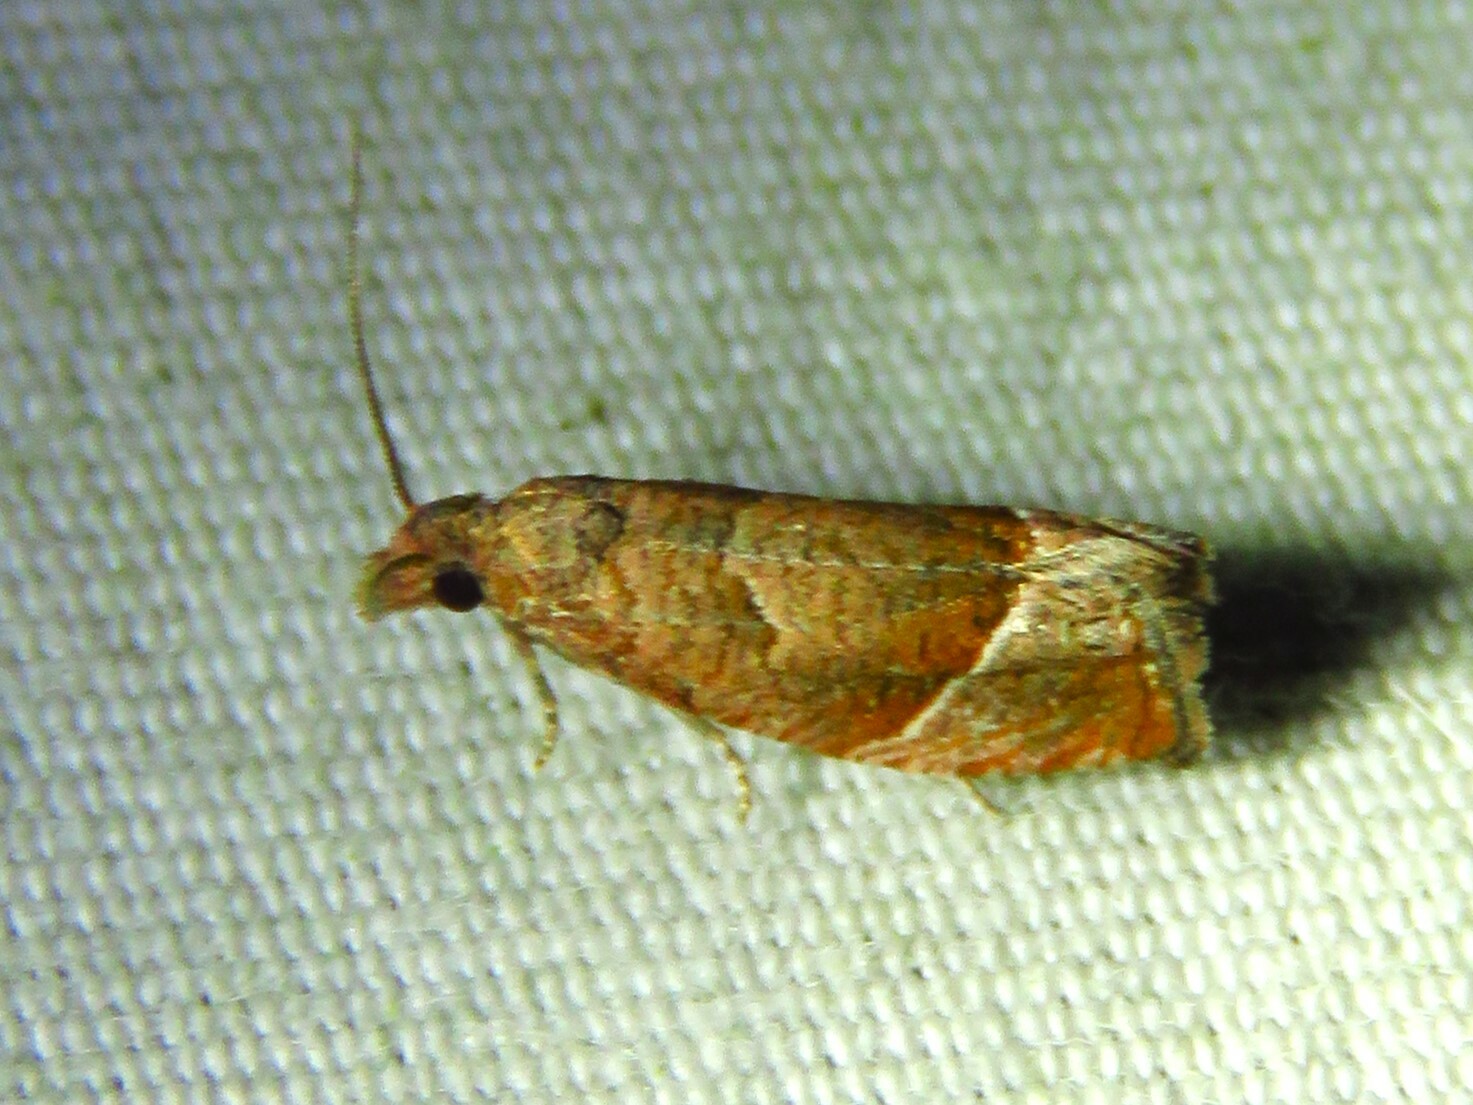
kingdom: Animalia
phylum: Arthropoda
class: Insecta
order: Lepidoptera
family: Tortricidae
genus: Pelochrista
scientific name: Pelochrista derelicta
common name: Derelict pelochrista moth
